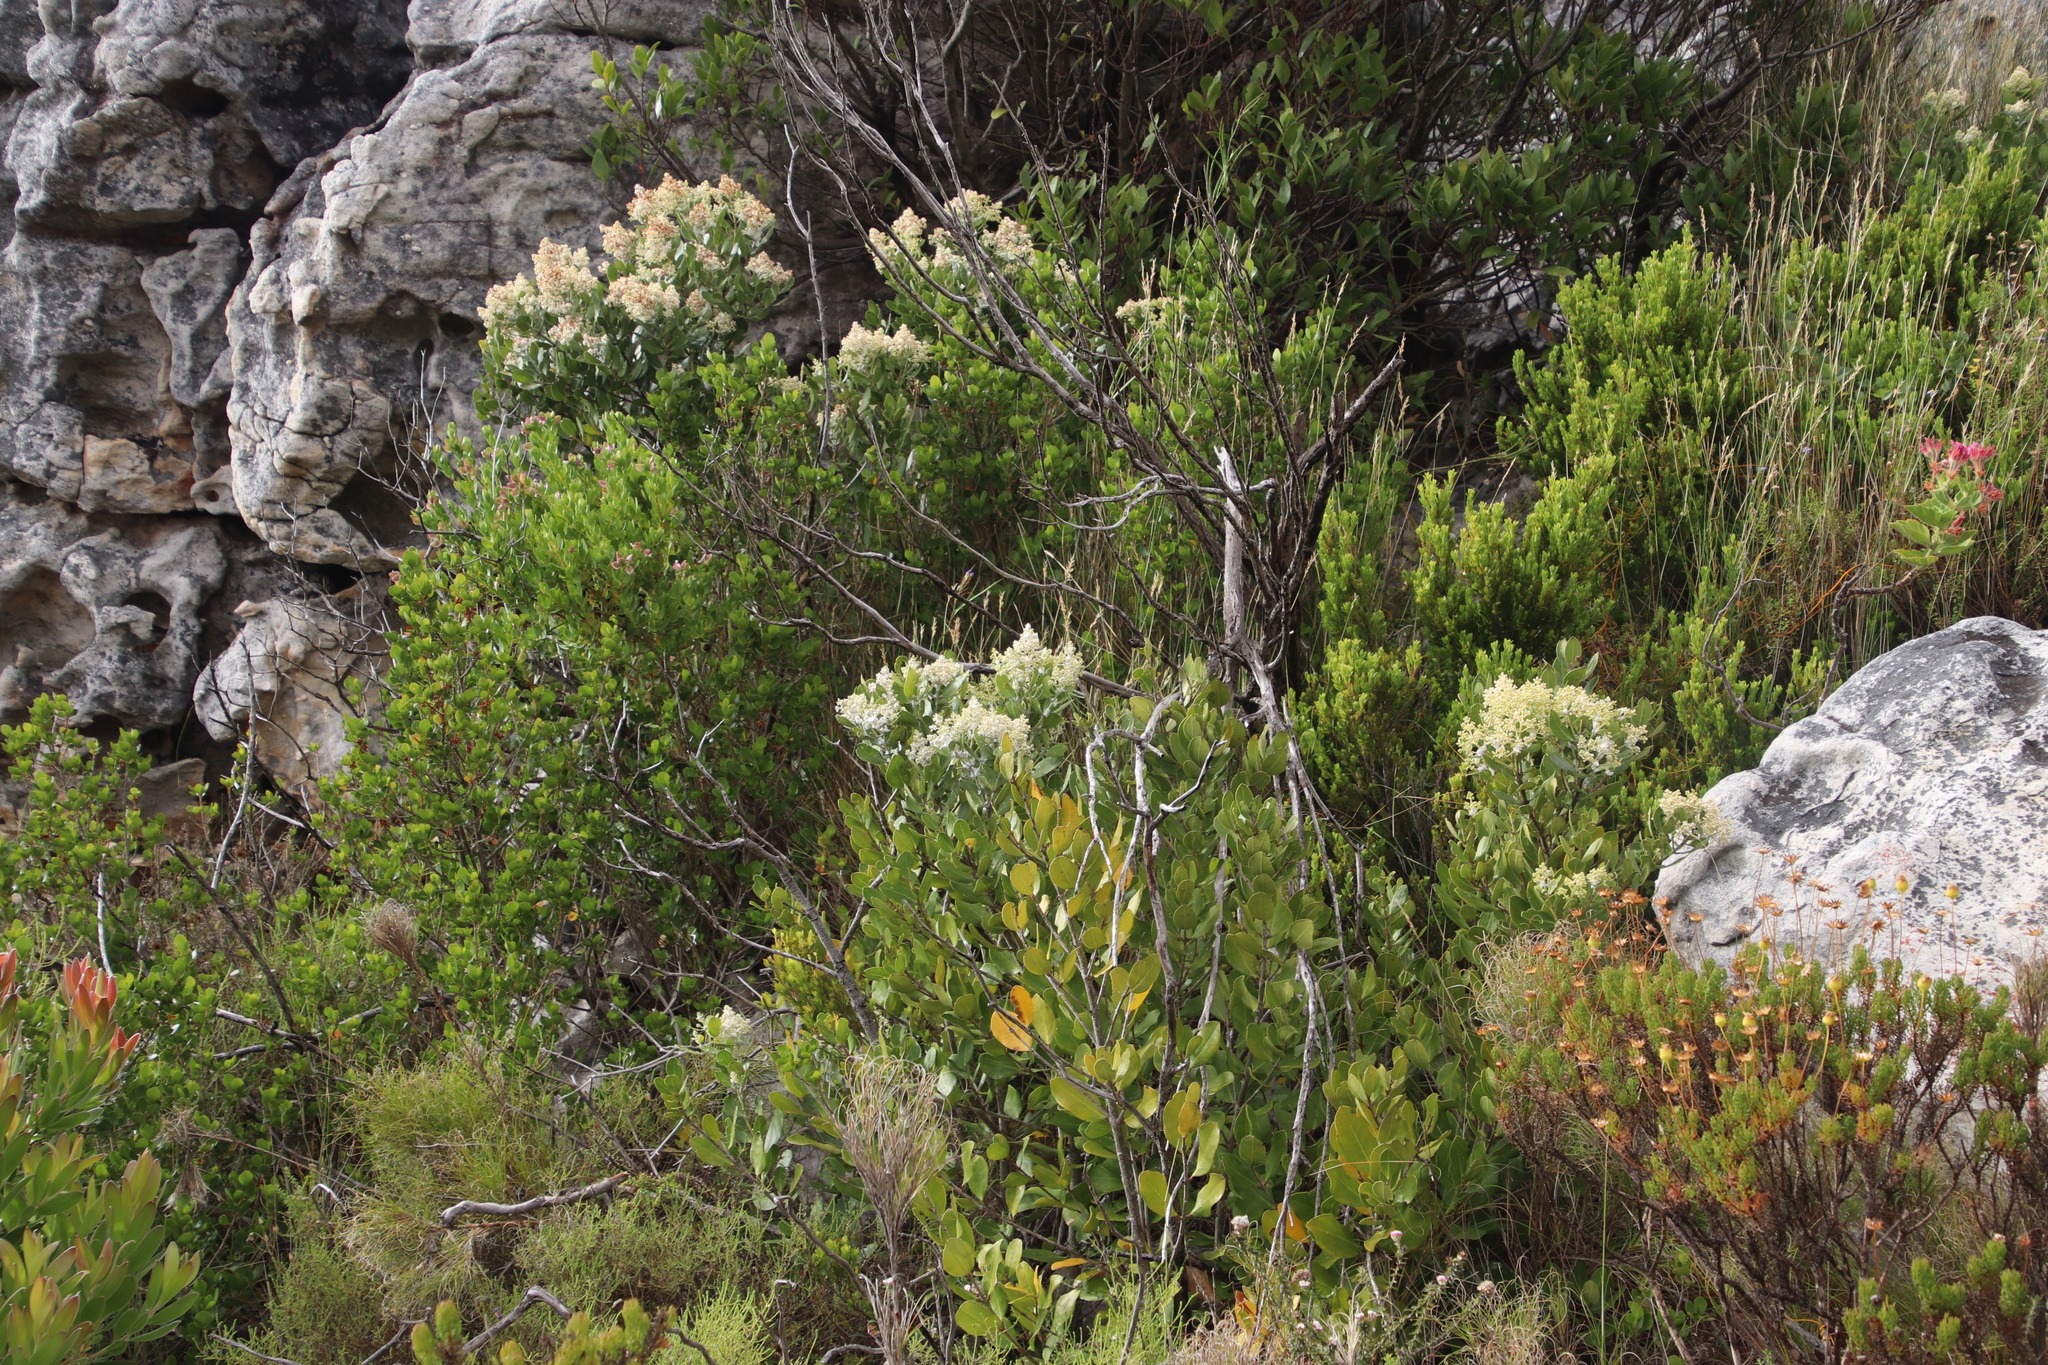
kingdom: Plantae
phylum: Tracheophyta
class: Magnoliopsida
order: Lamiales
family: Oleaceae
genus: Olea
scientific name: Olea capensis
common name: Black ironwood
